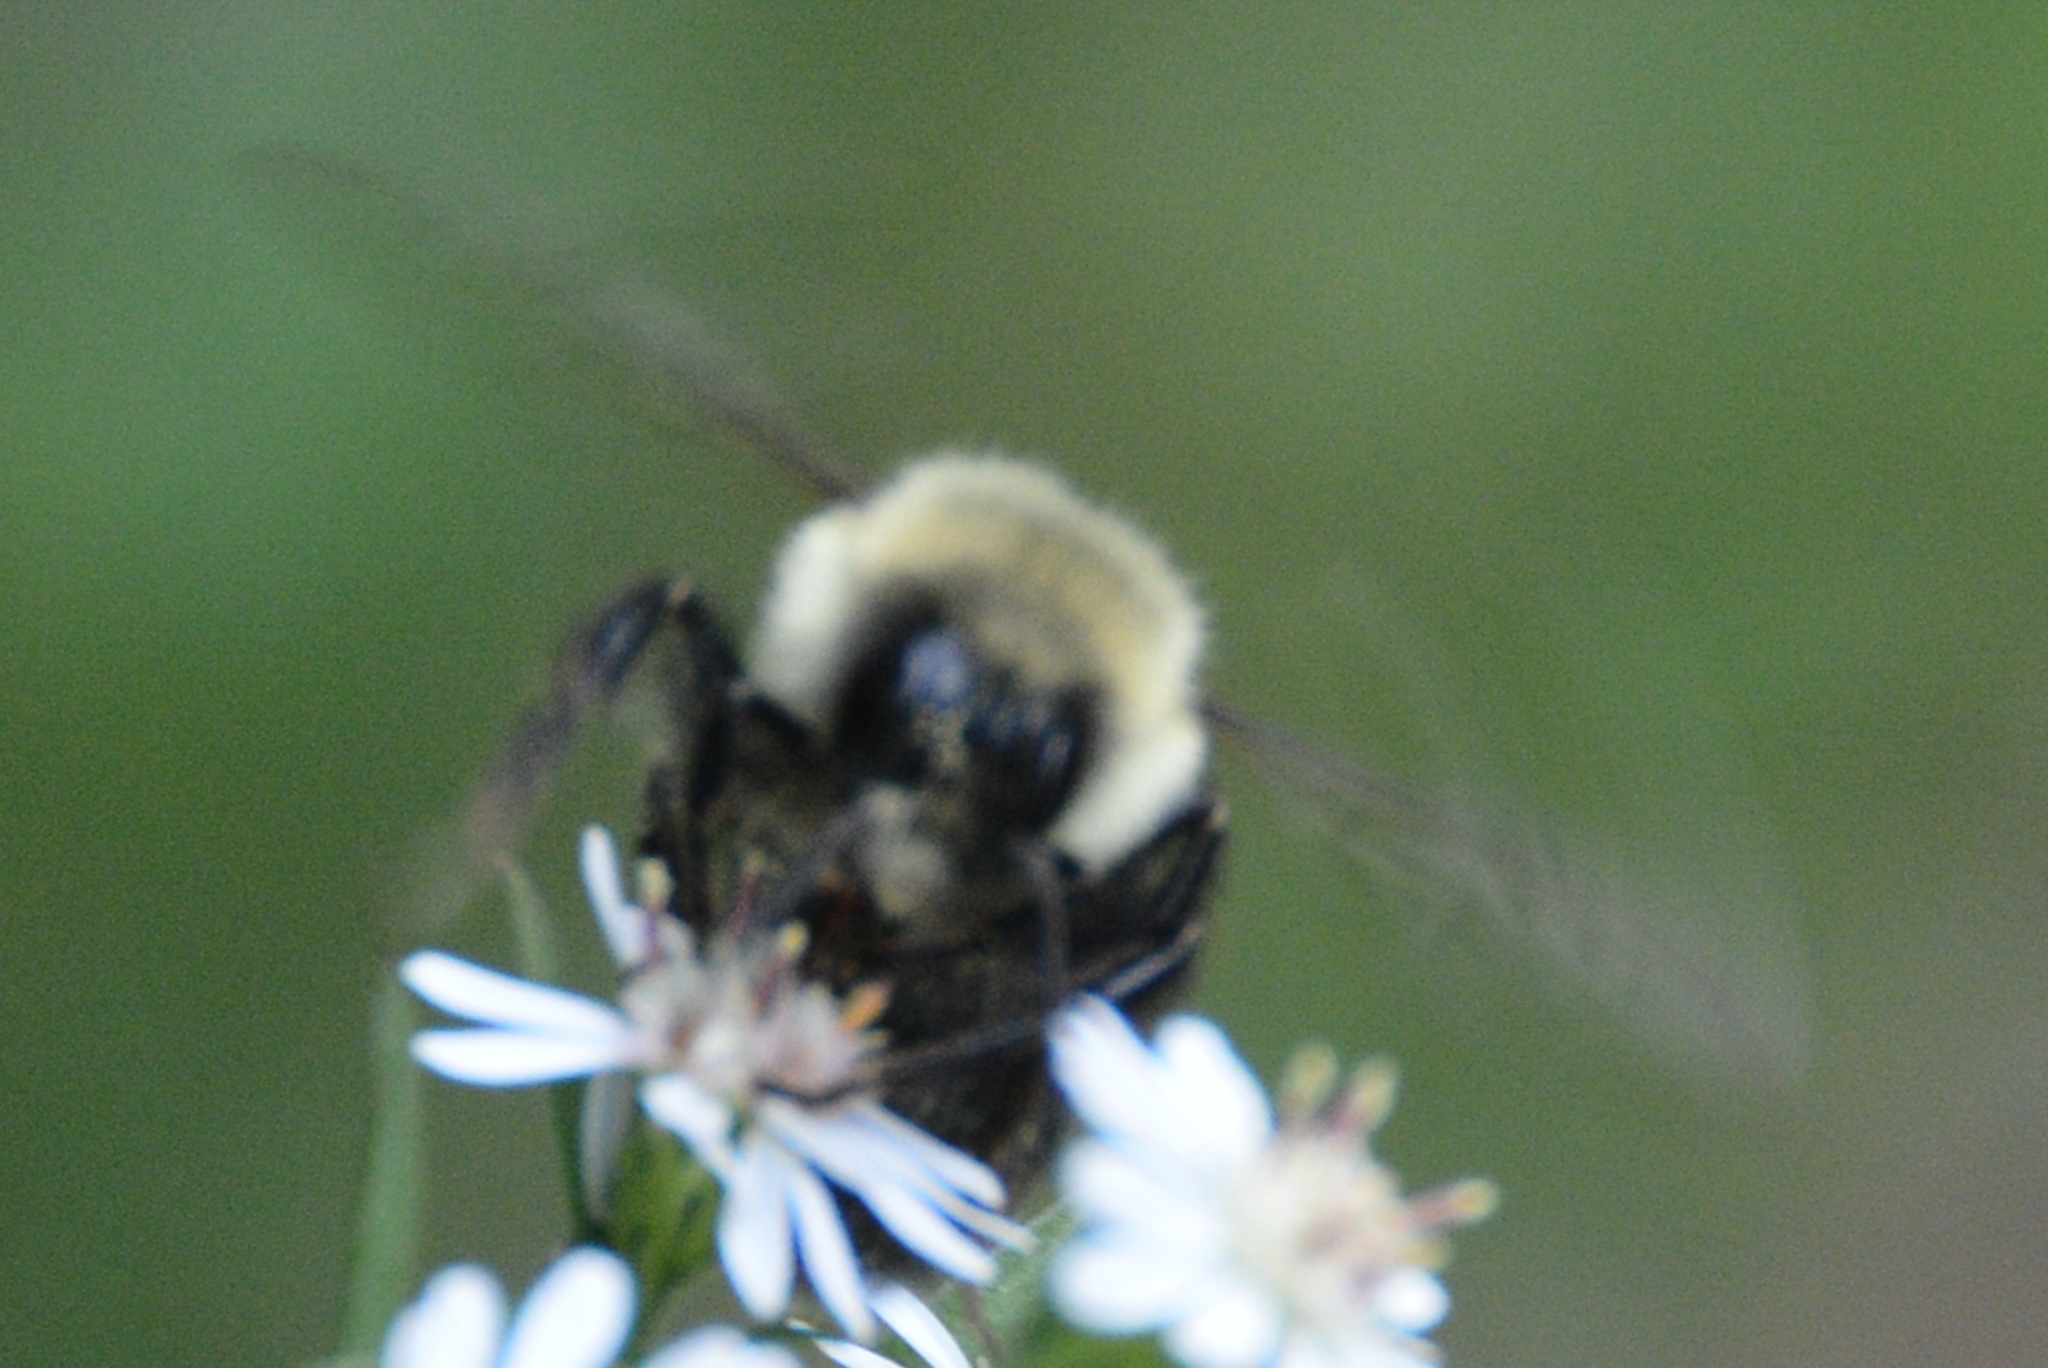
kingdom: Animalia
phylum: Arthropoda
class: Insecta
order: Hymenoptera
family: Apidae
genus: Bombus
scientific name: Bombus impatiens
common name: Common eastern bumble bee
